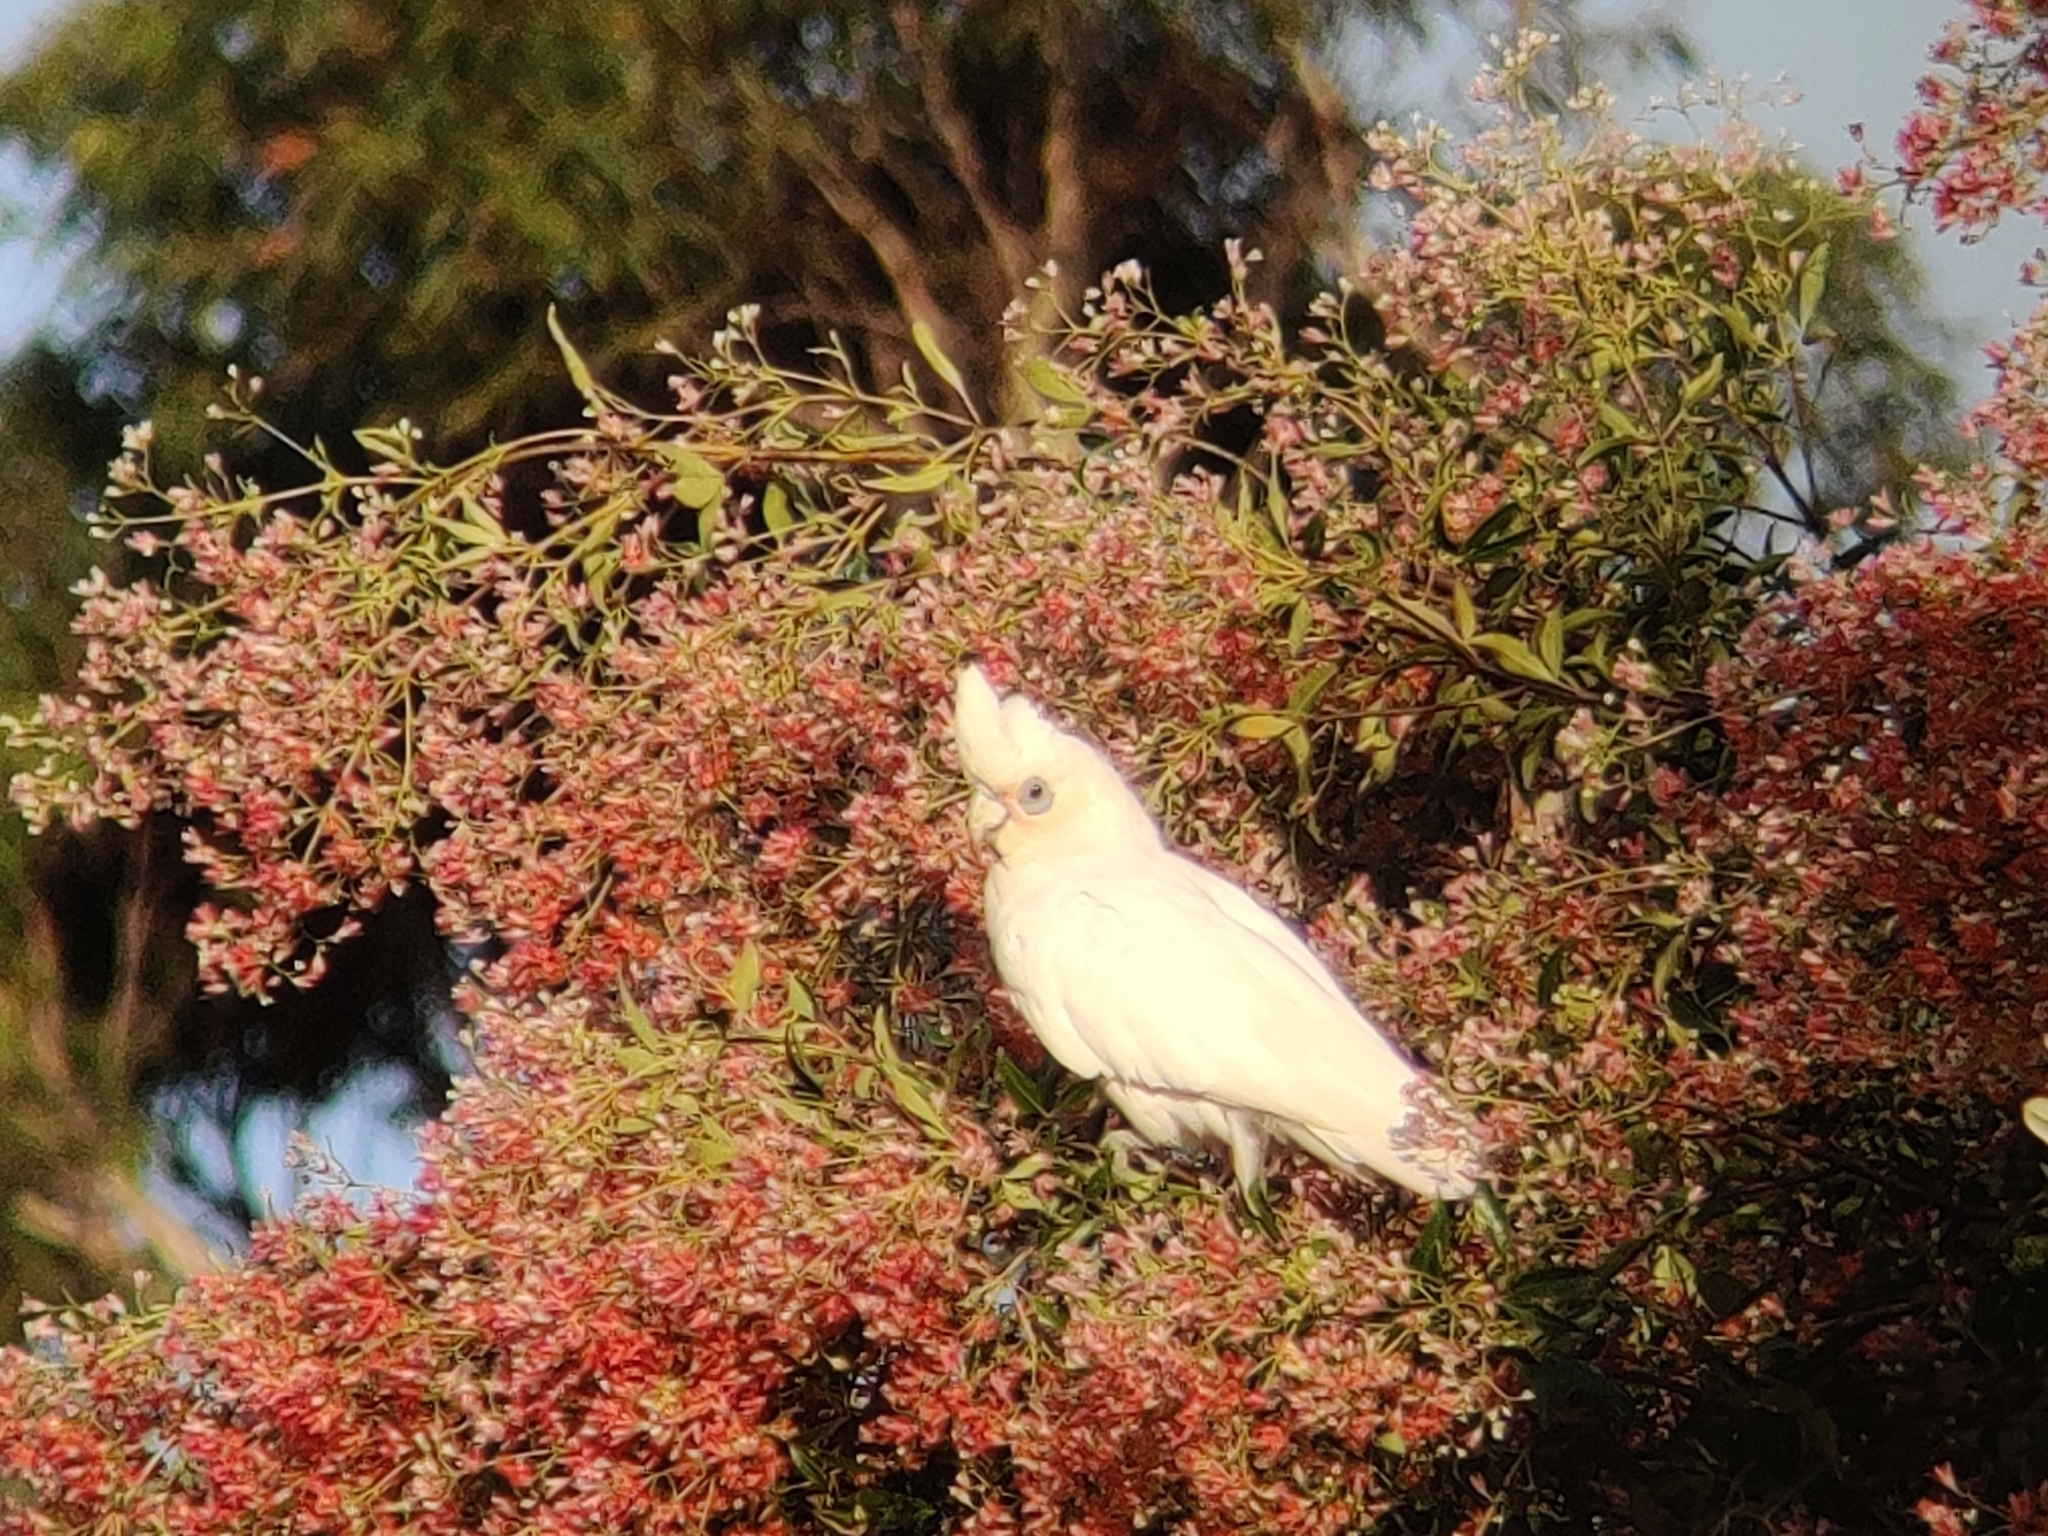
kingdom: Animalia
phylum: Chordata
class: Aves
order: Psittaciformes
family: Psittacidae
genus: Cacatua
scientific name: Cacatua sanguinea
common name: Little corella
